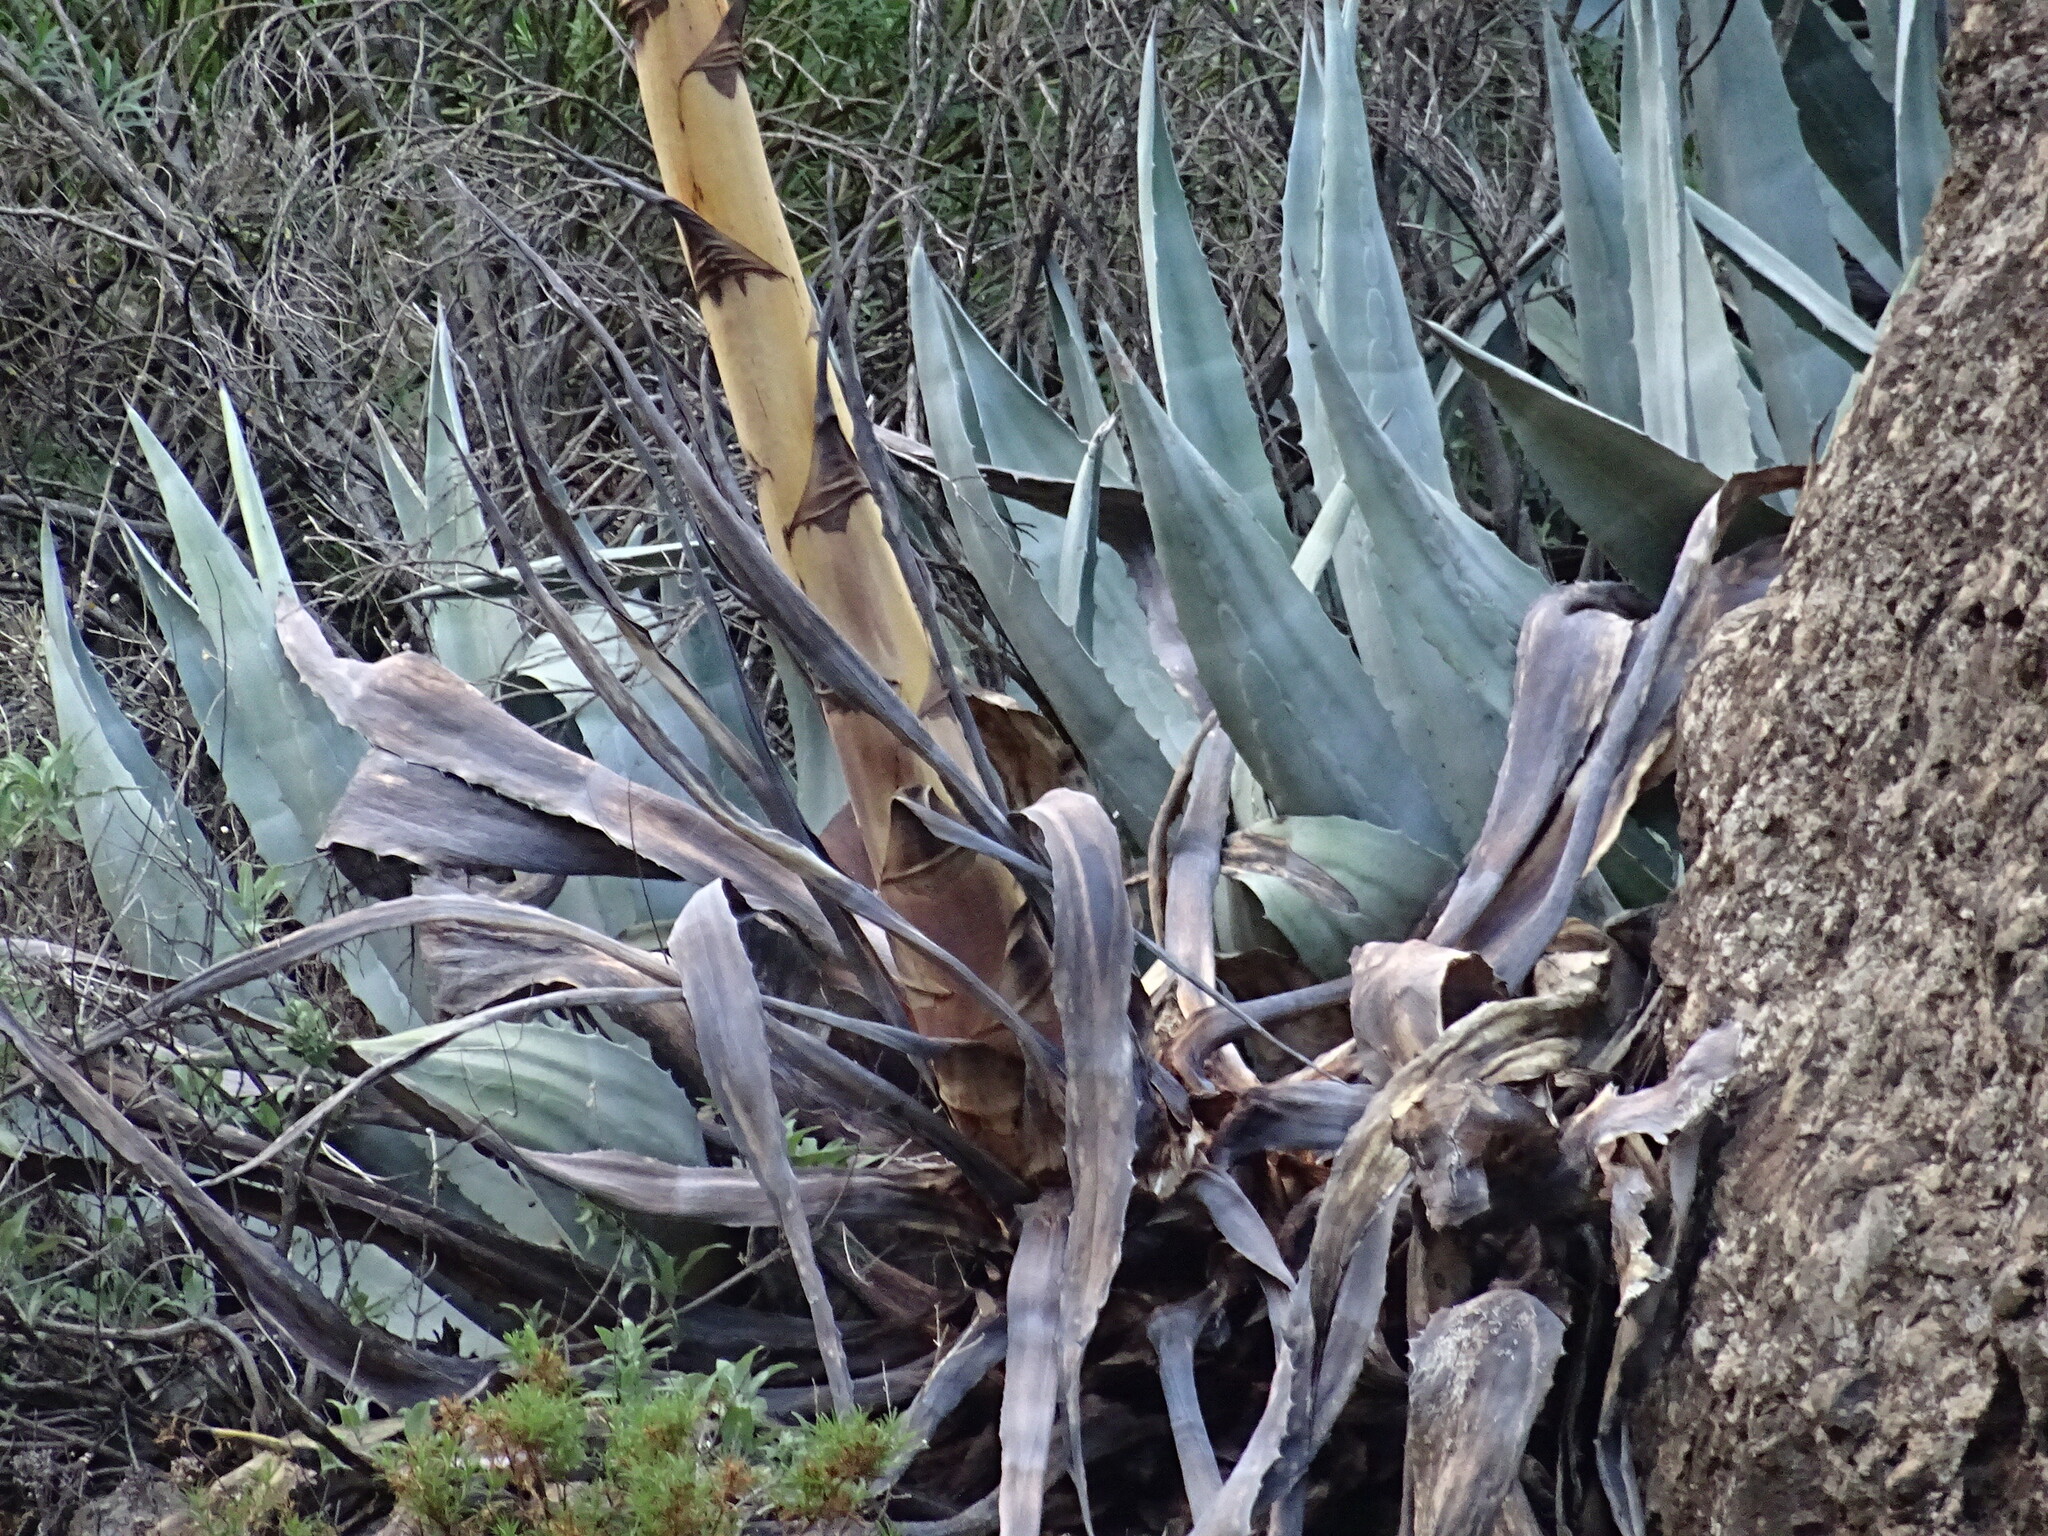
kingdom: Plantae
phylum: Tracheophyta
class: Liliopsida
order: Asparagales
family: Asparagaceae
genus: Agave
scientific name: Agave americana
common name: Centuryplant
